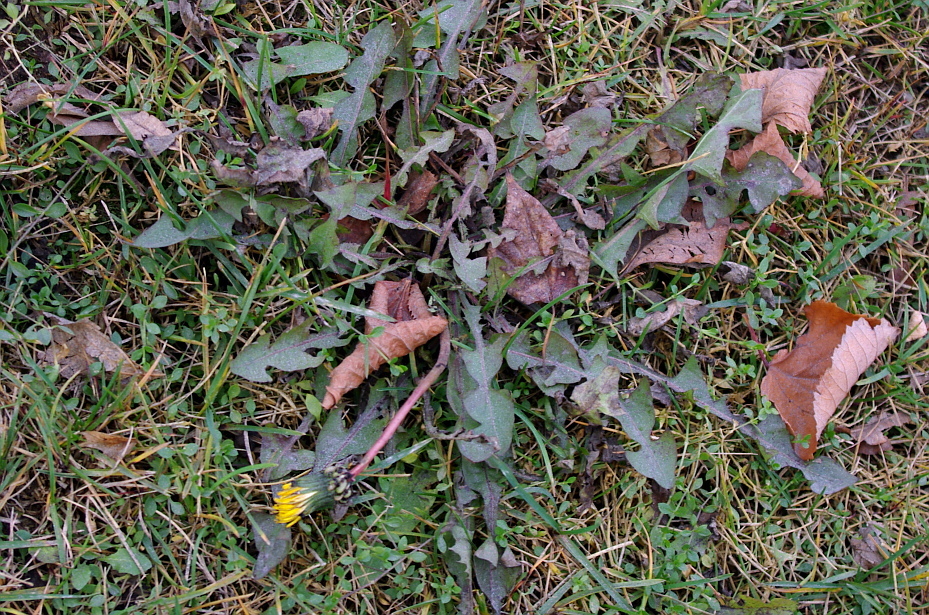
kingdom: Plantae
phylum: Tracheophyta
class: Magnoliopsida
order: Asterales
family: Asteraceae
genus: Taraxacum
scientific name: Taraxacum officinale
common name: Common dandelion
